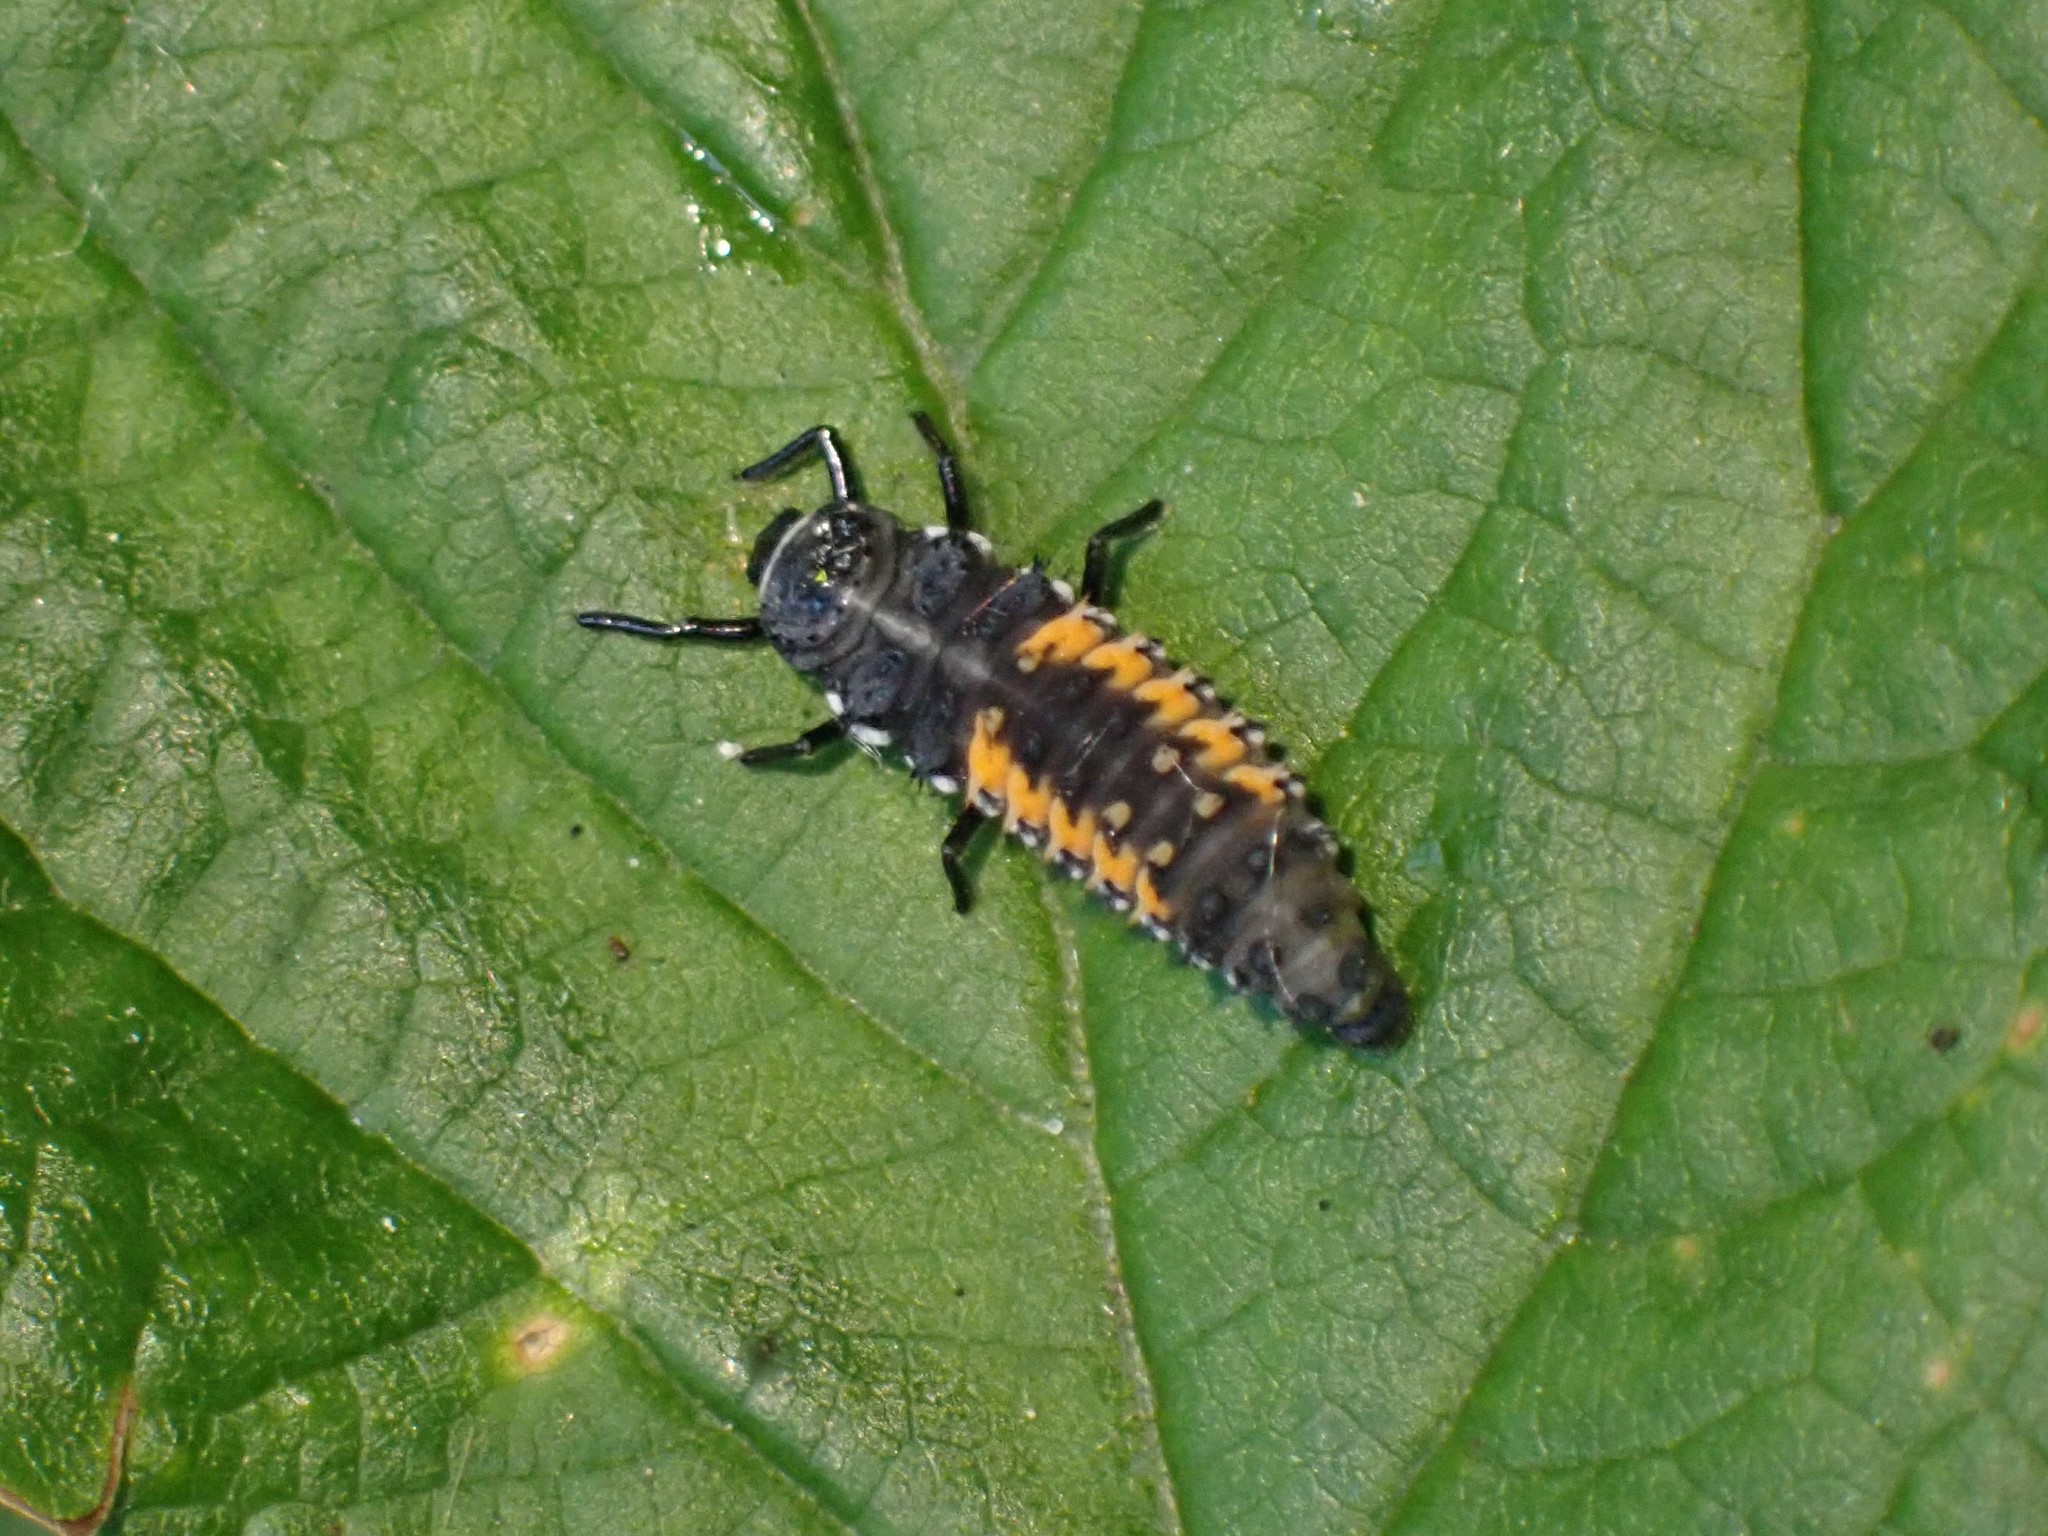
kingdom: Animalia
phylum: Arthropoda
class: Insecta
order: Coleoptera
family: Coccinellidae
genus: Harmonia
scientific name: Harmonia axyridis
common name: Harlequin ladybird
